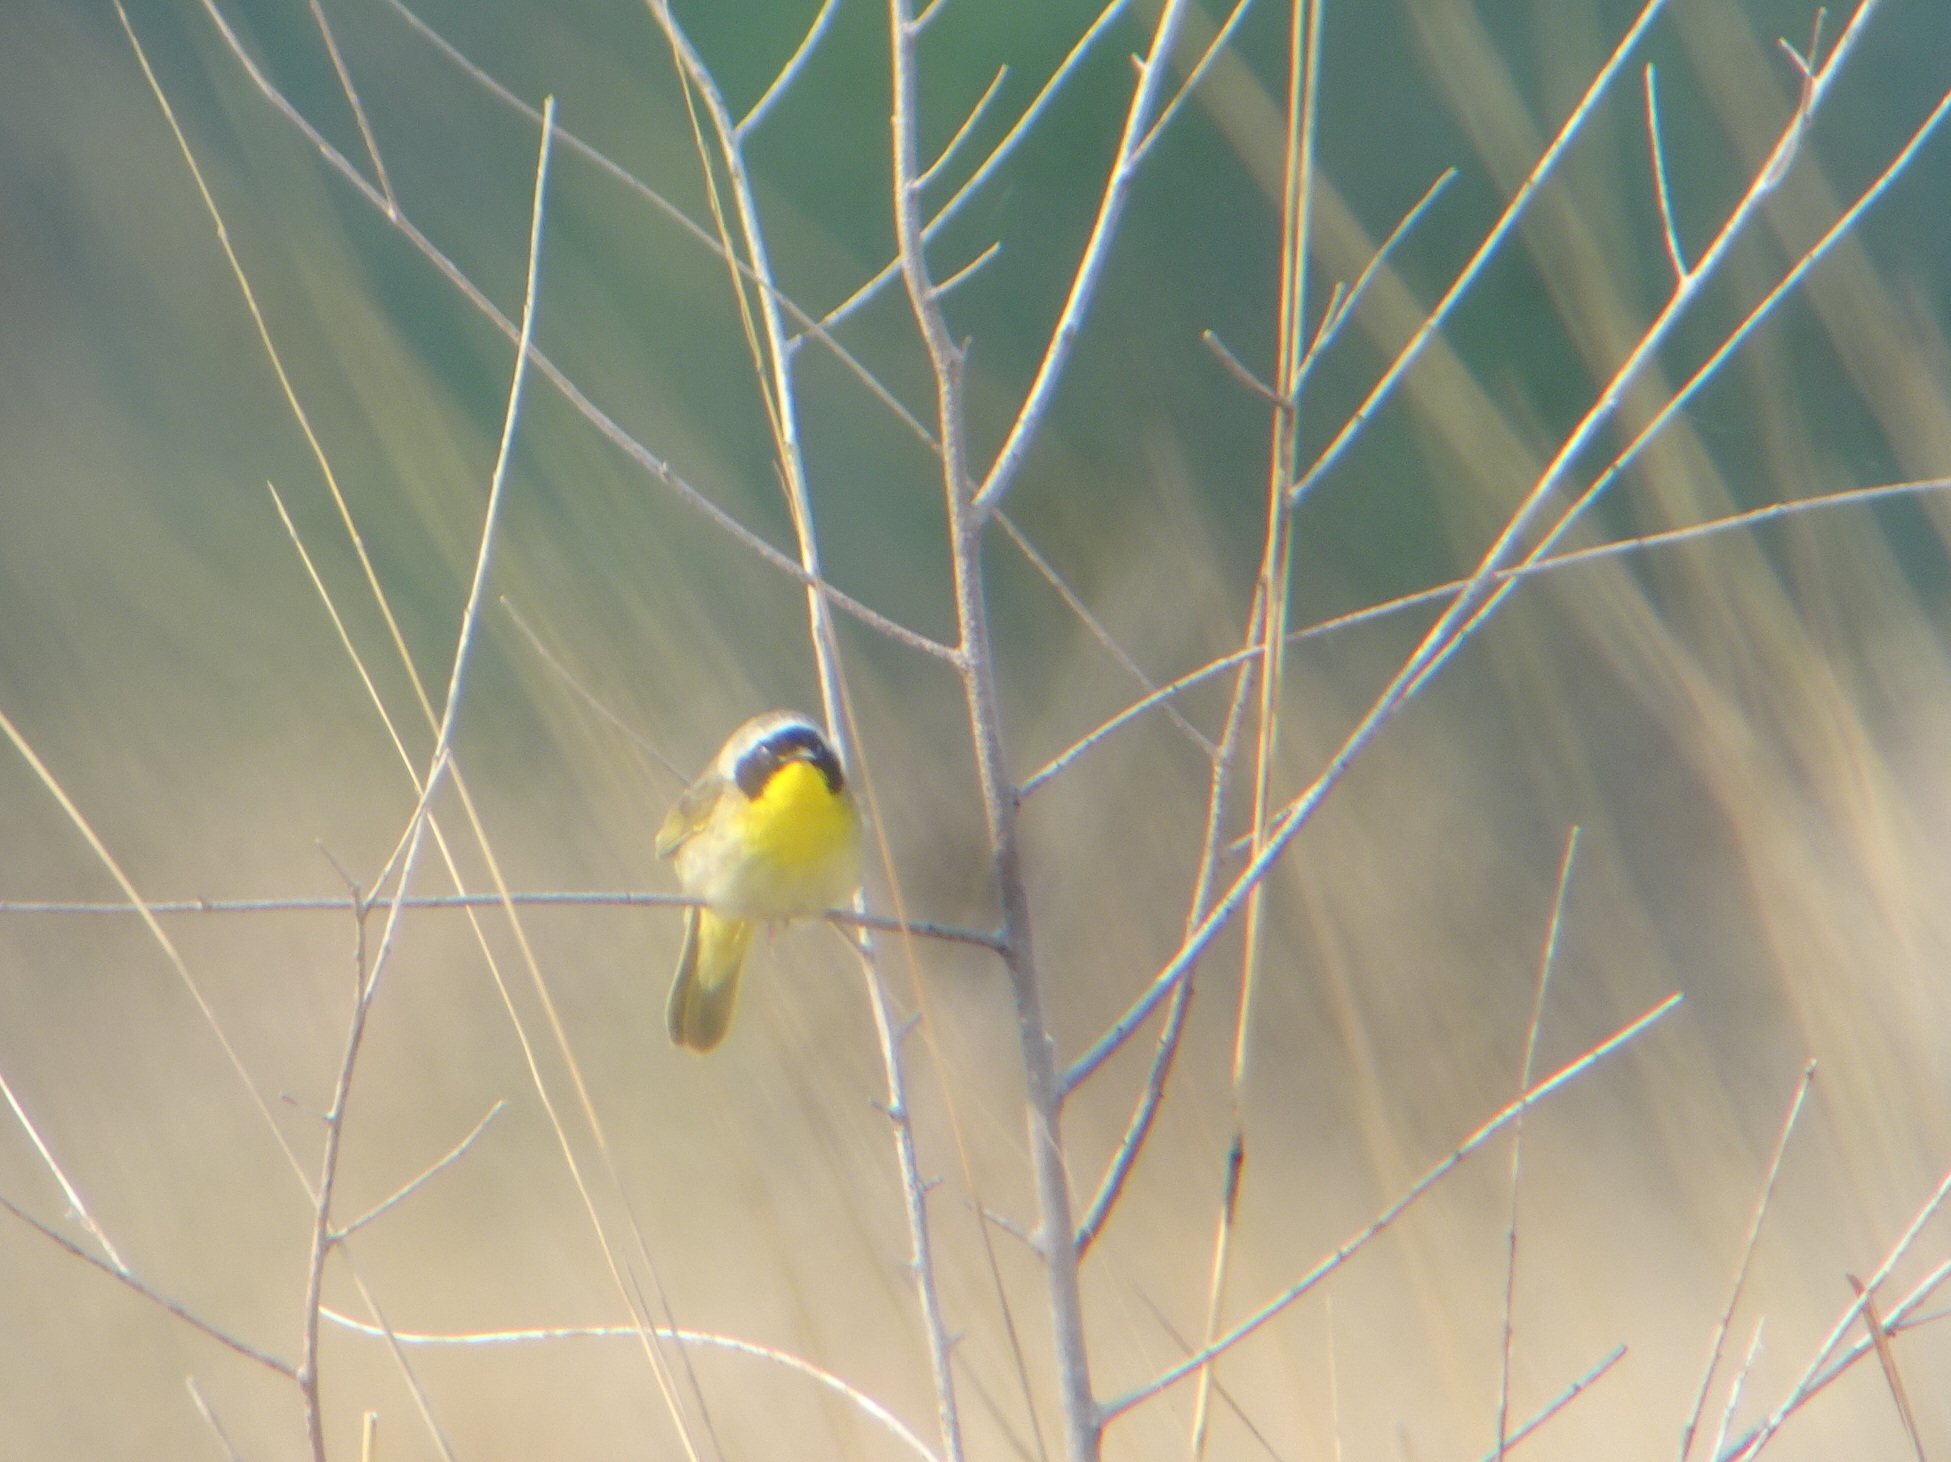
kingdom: Animalia
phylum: Chordata
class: Aves
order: Passeriformes
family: Parulidae
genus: Geothlypis
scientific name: Geothlypis trichas
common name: Common yellowthroat
